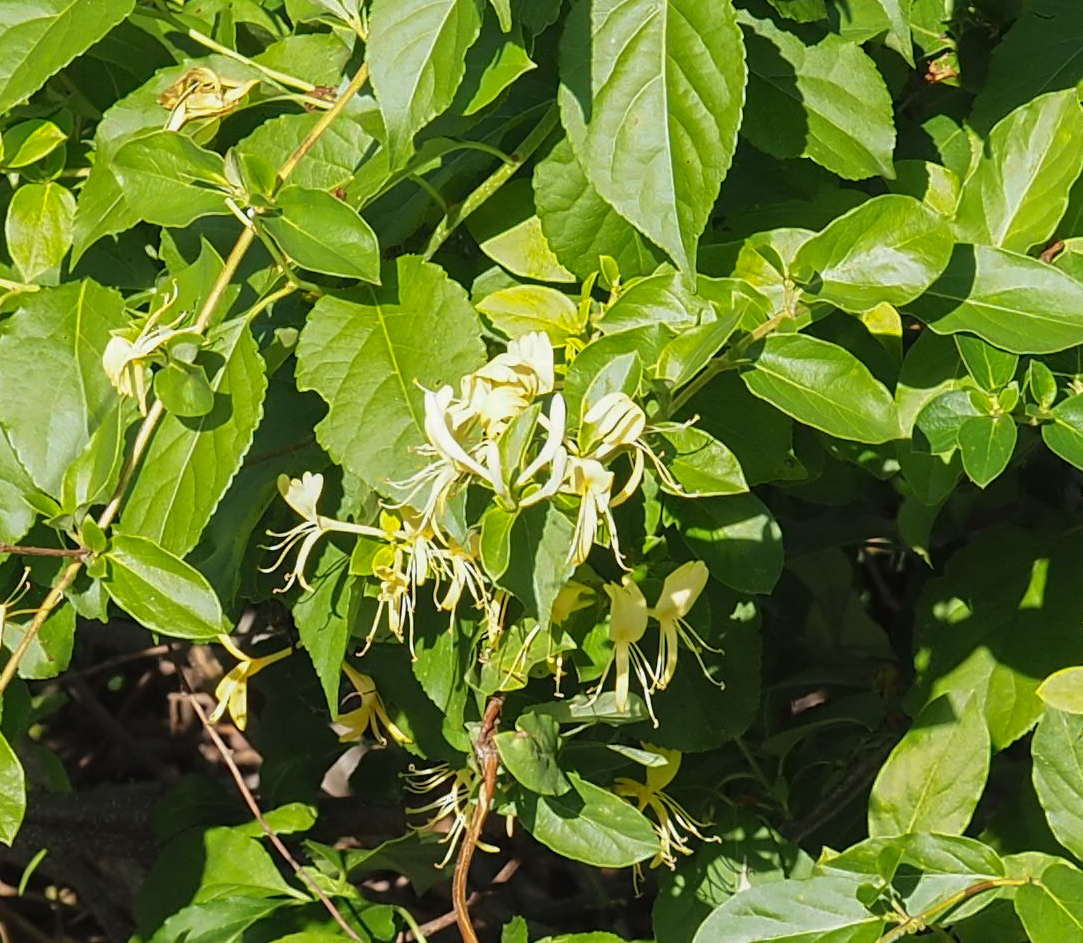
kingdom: Plantae
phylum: Tracheophyta
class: Magnoliopsida
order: Dipsacales
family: Caprifoliaceae
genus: Lonicera
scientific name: Lonicera japonica
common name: Japanese honeysuckle
